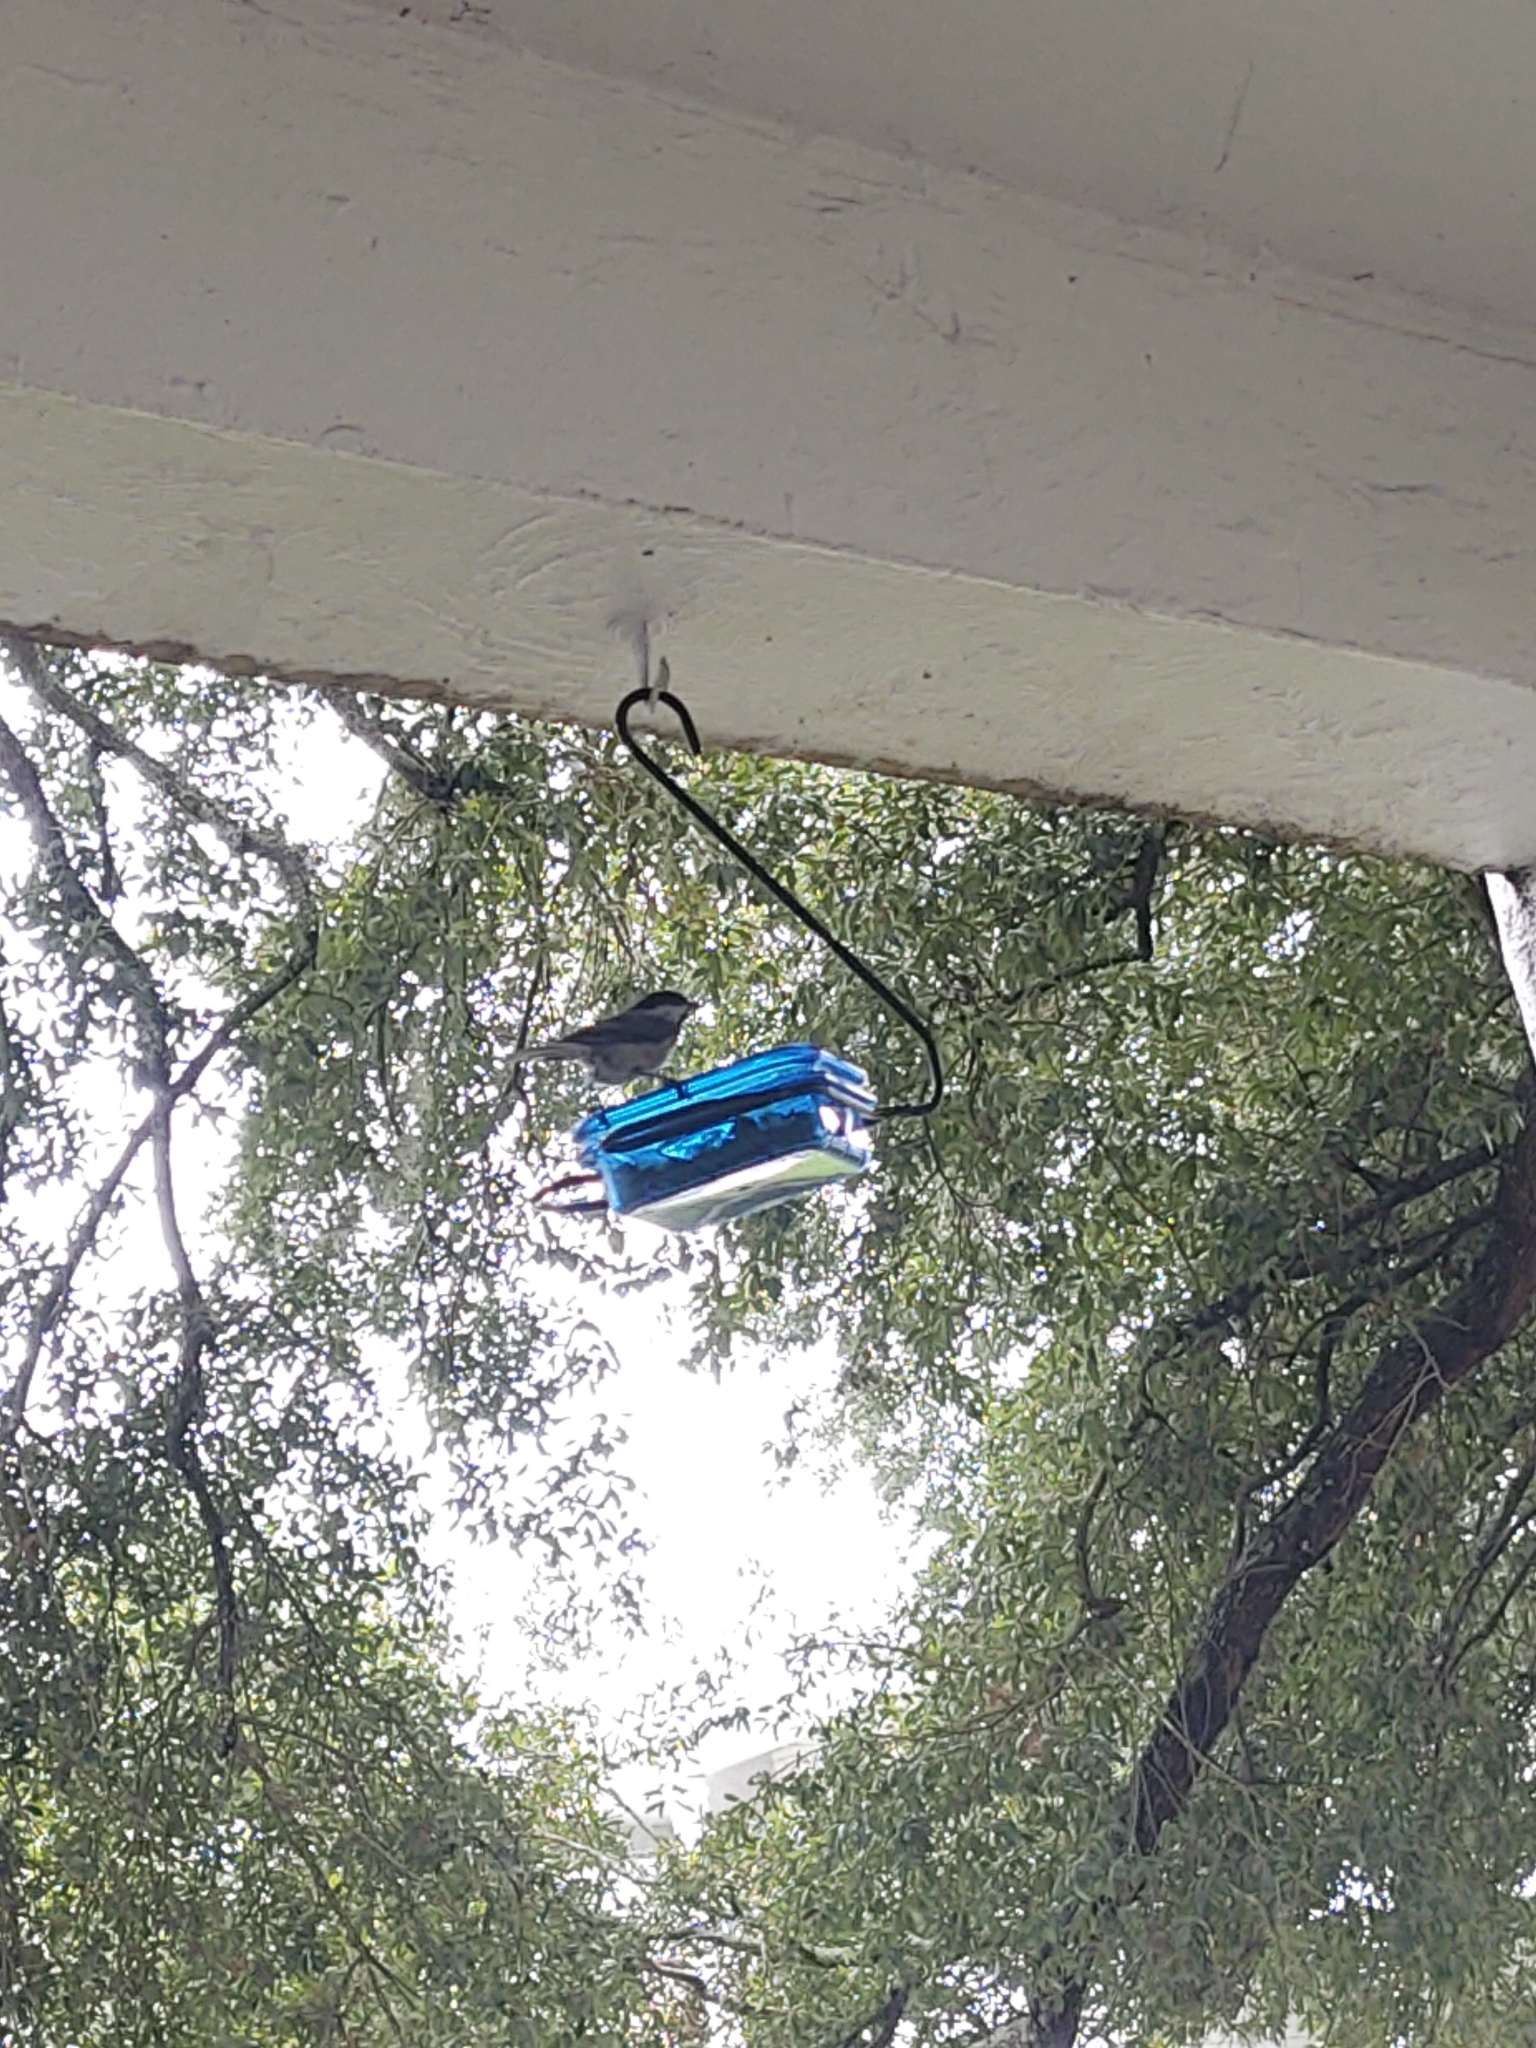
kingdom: Animalia
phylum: Chordata
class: Aves
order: Passeriformes
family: Paridae
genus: Poecile
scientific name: Poecile carolinensis
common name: Carolina chickadee
